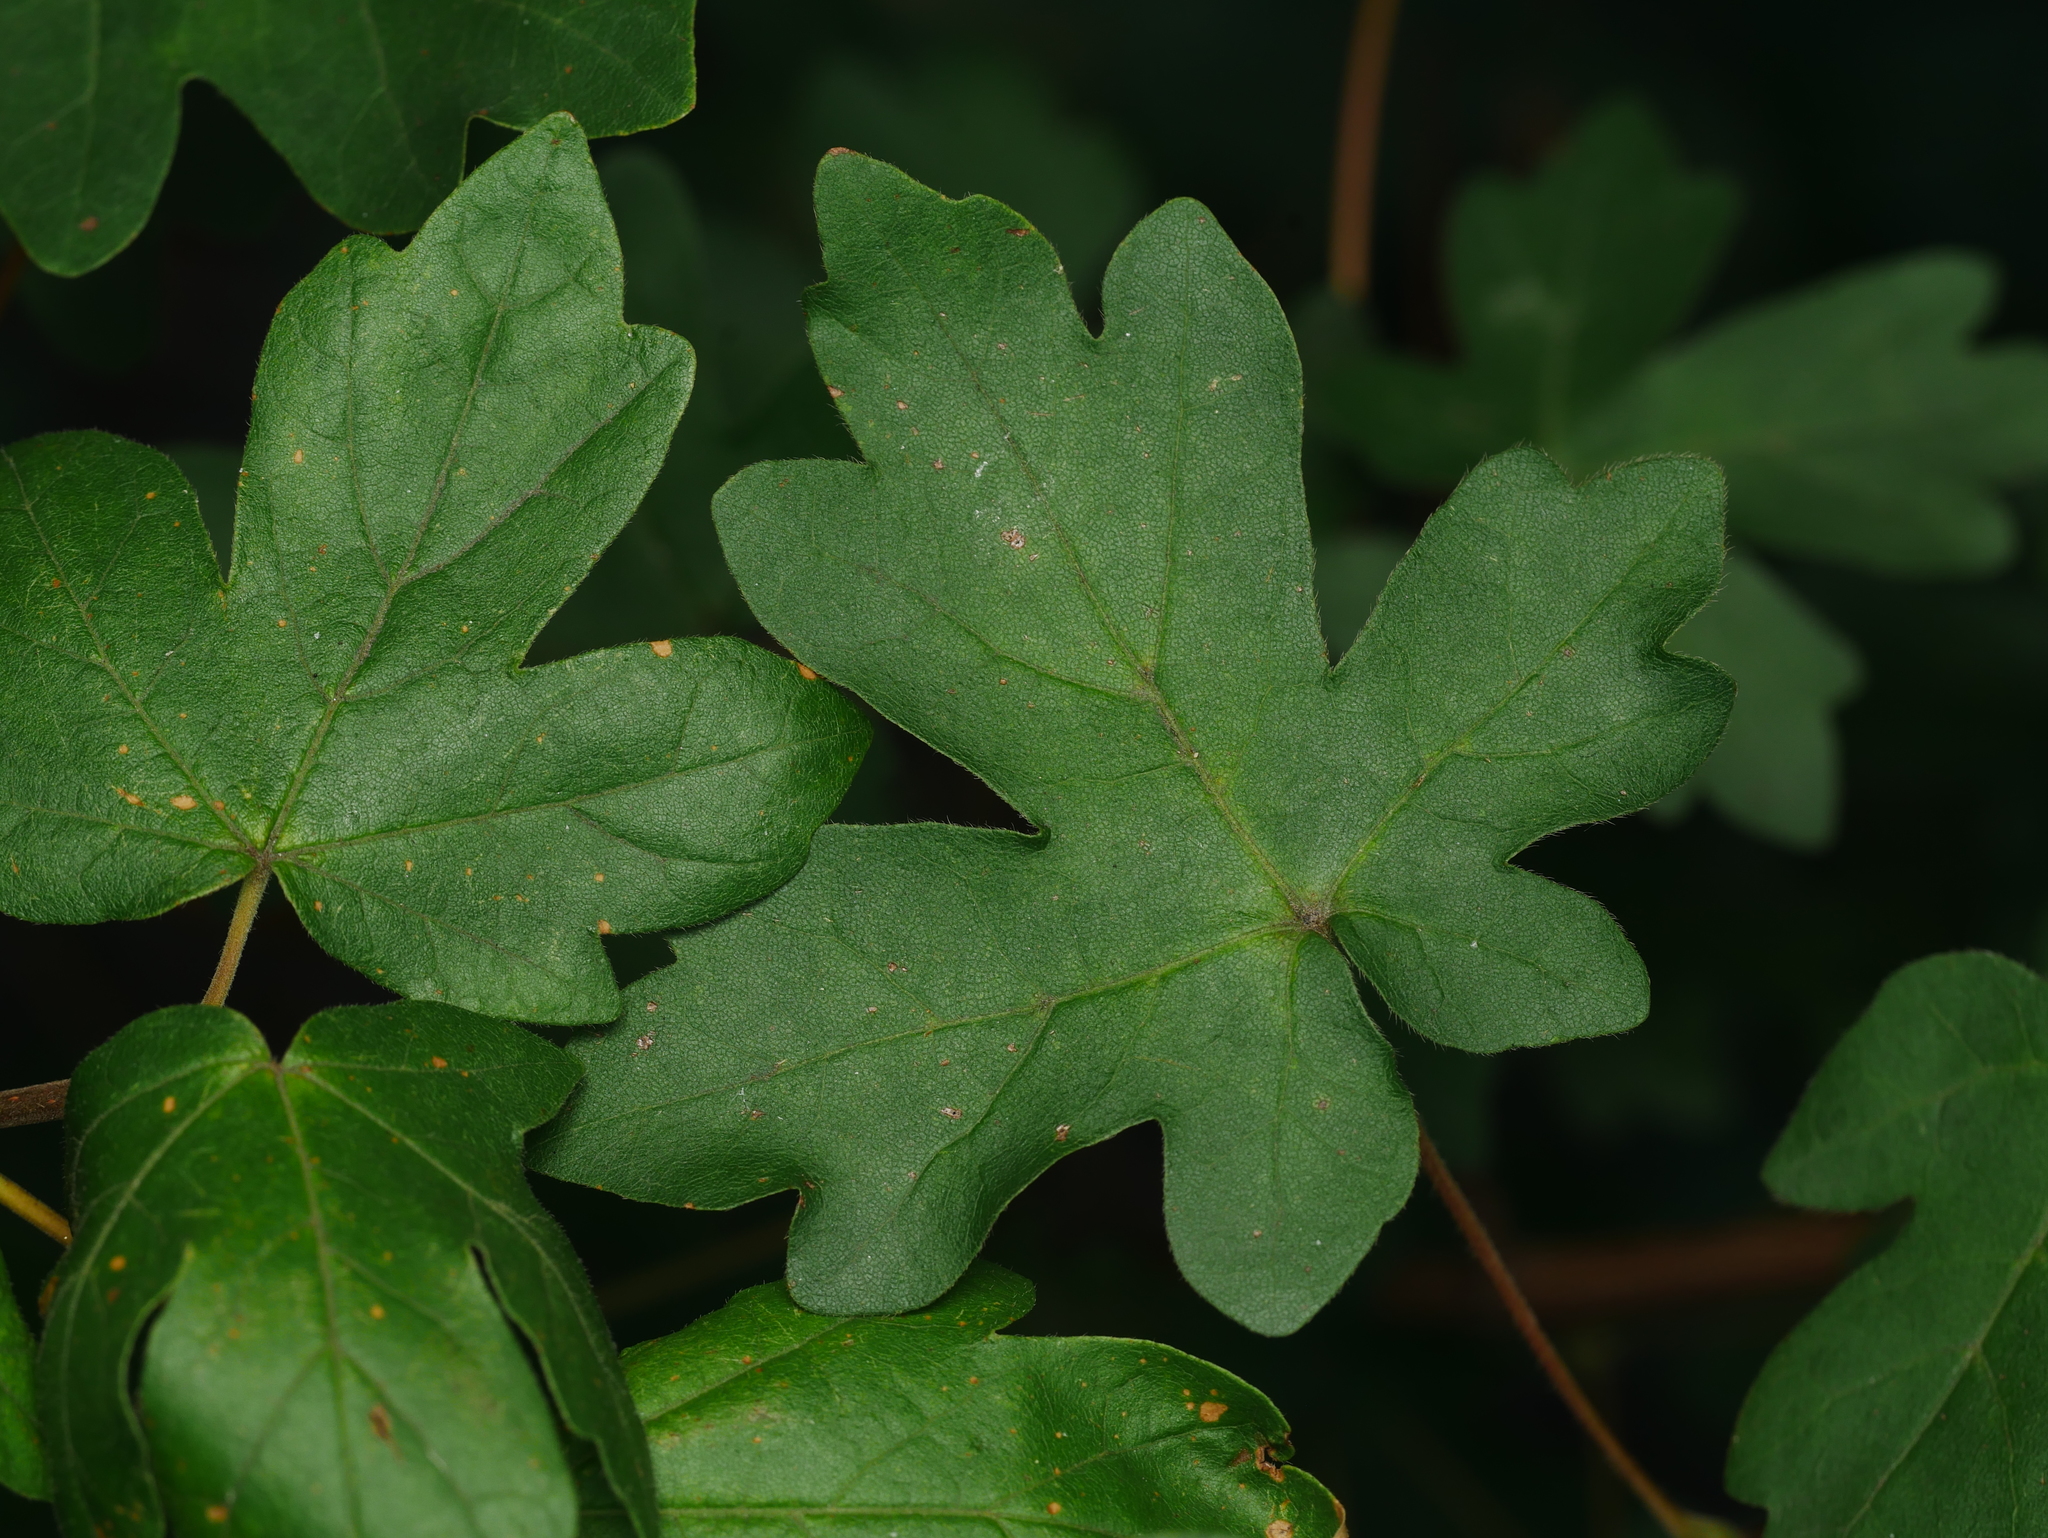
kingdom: Plantae
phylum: Tracheophyta
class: Magnoliopsida
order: Sapindales
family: Sapindaceae
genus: Acer
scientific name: Acer campestre
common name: Field maple
